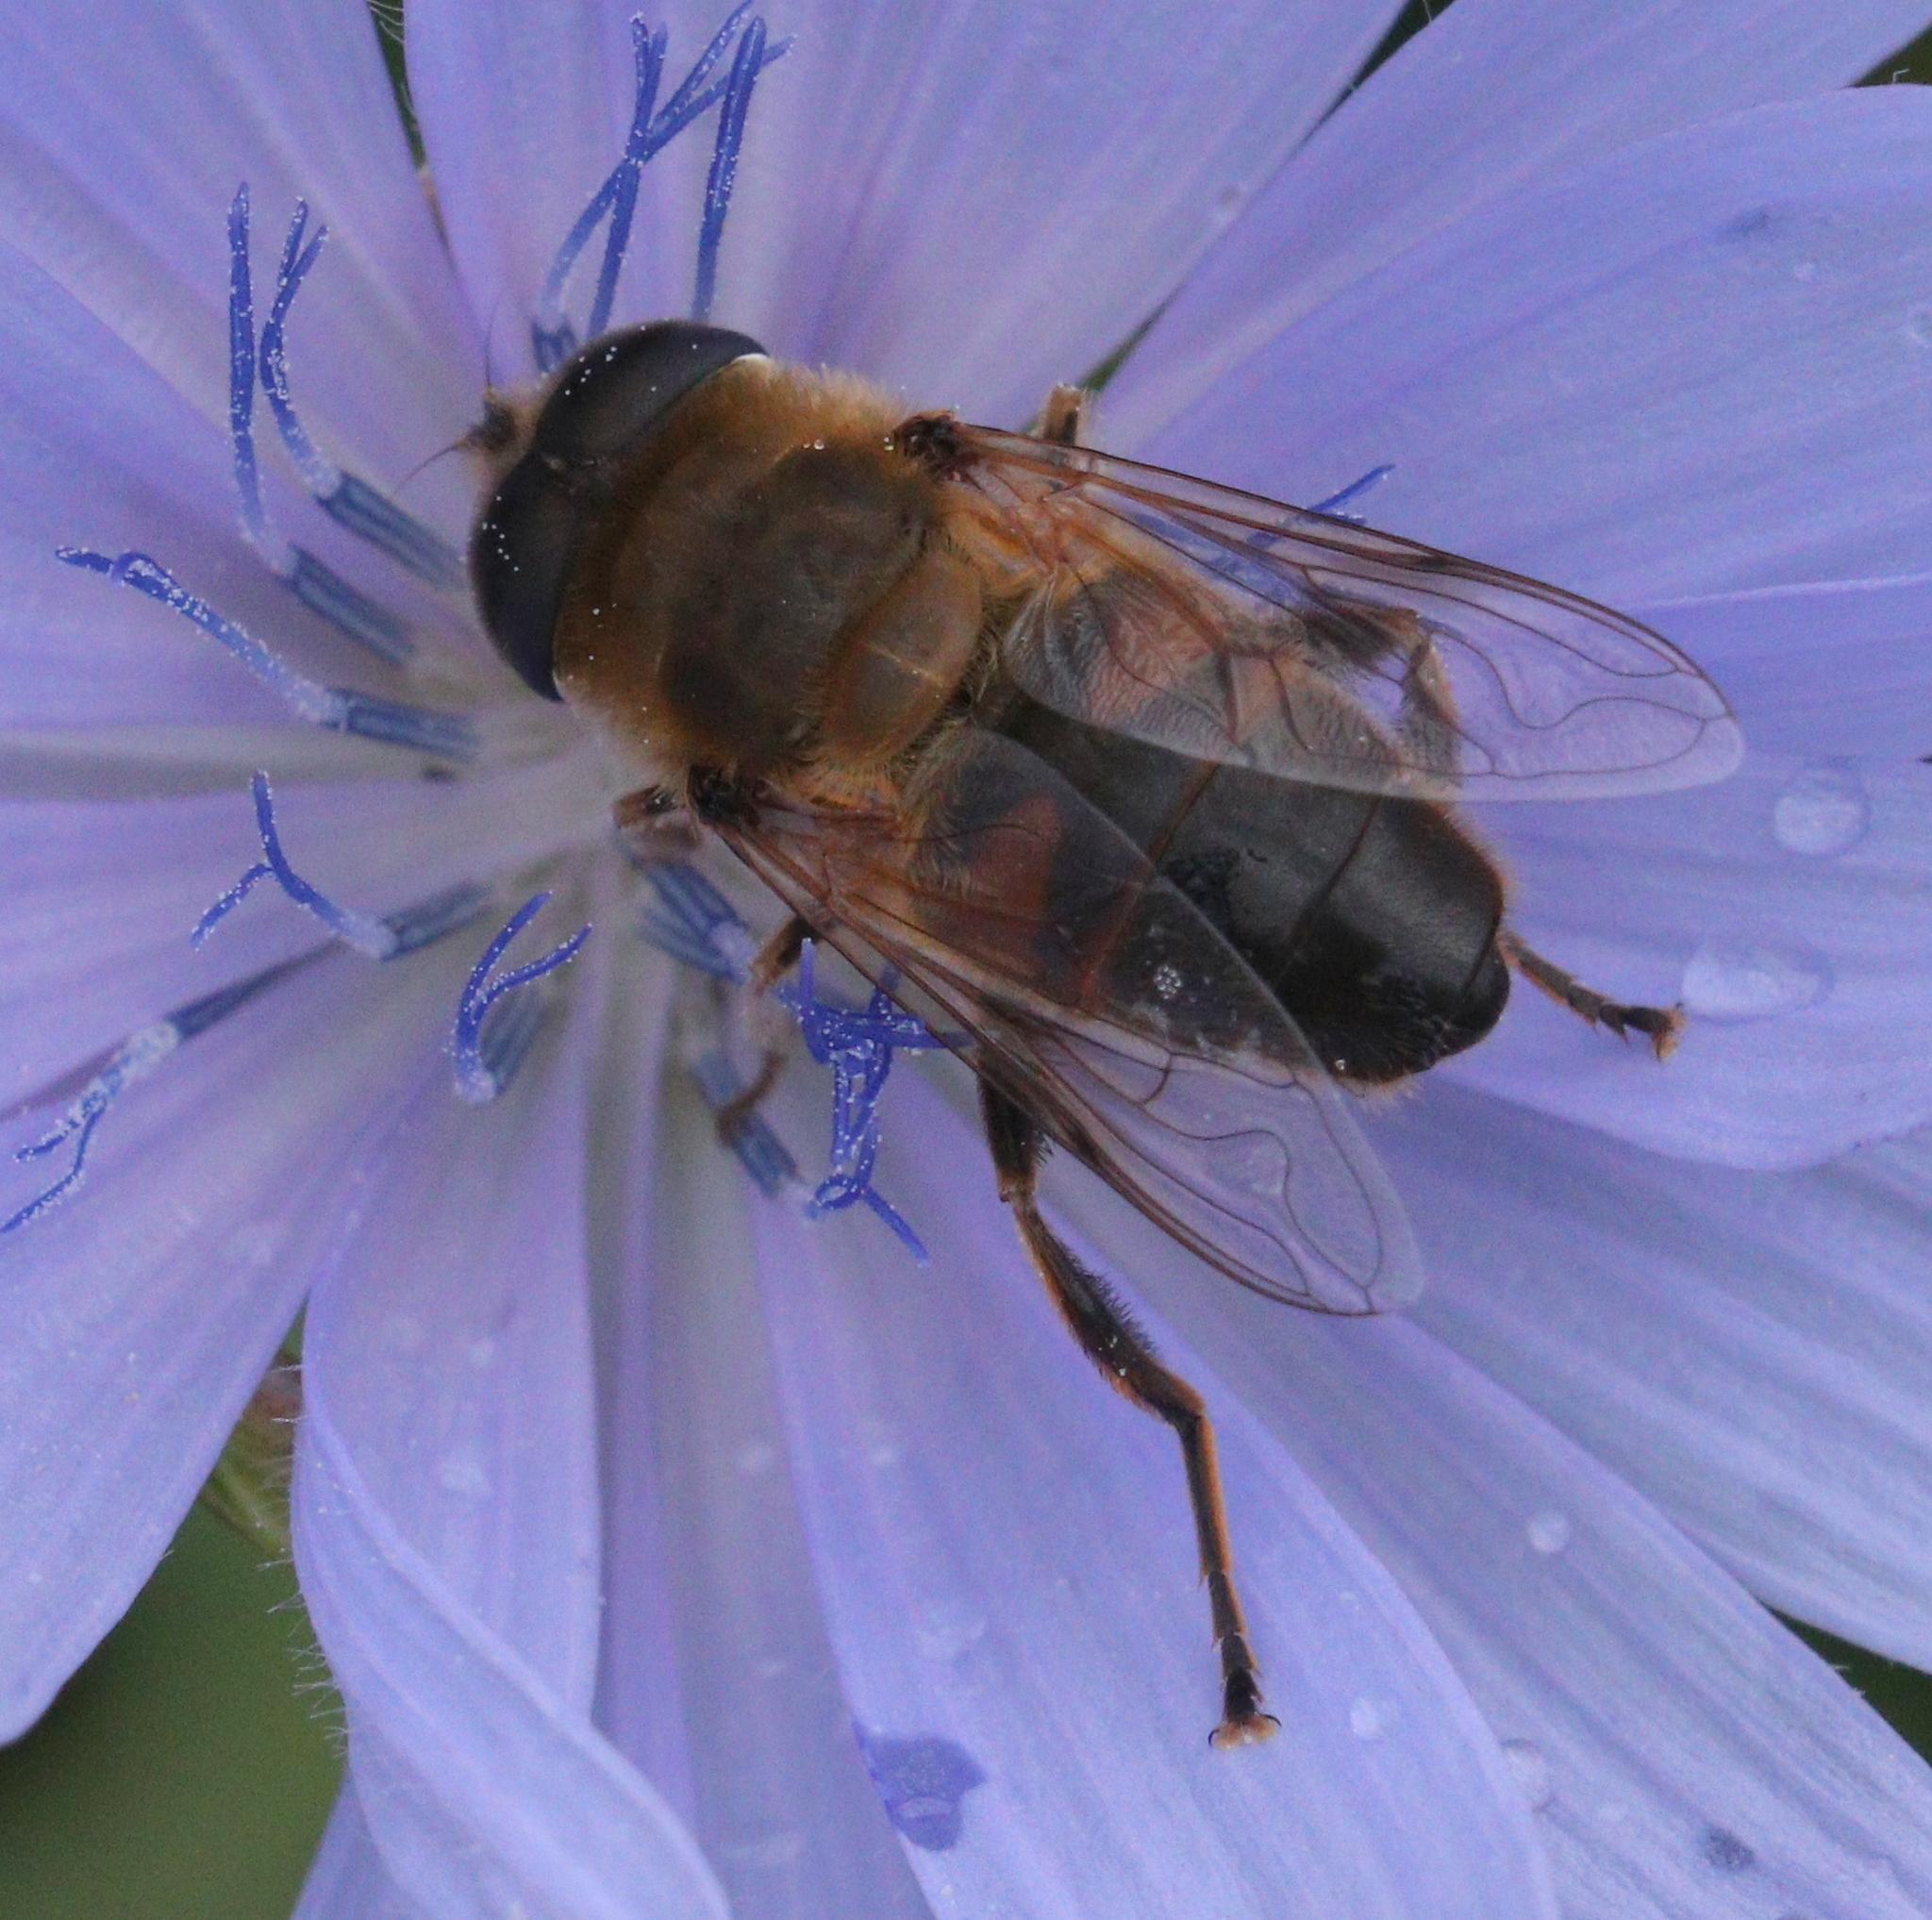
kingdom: Animalia
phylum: Arthropoda
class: Insecta
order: Diptera
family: Syrphidae
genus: Eristalis
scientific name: Eristalis tenax
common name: Drone fly
